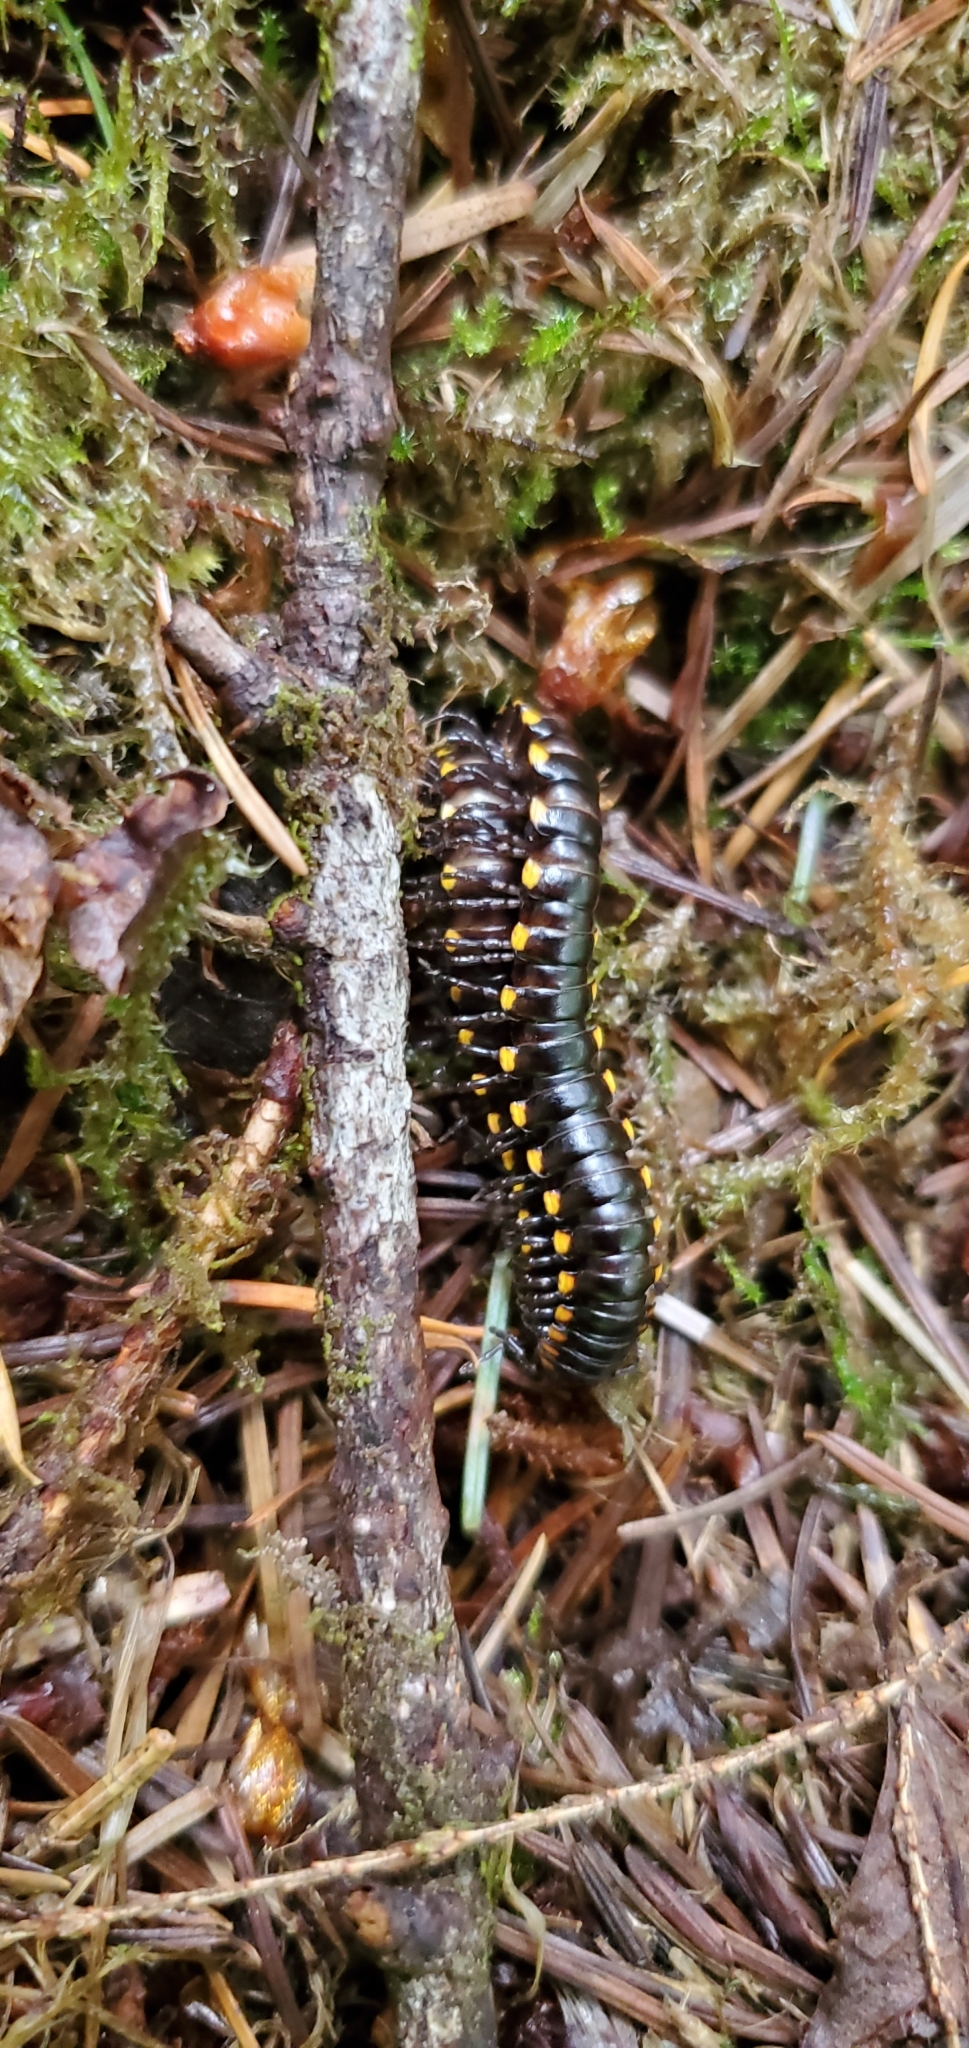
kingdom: Animalia
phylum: Arthropoda
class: Diplopoda
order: Polydesmida
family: Xystodesmidae
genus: Harpaphe
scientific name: Harpaphe haydeniana
